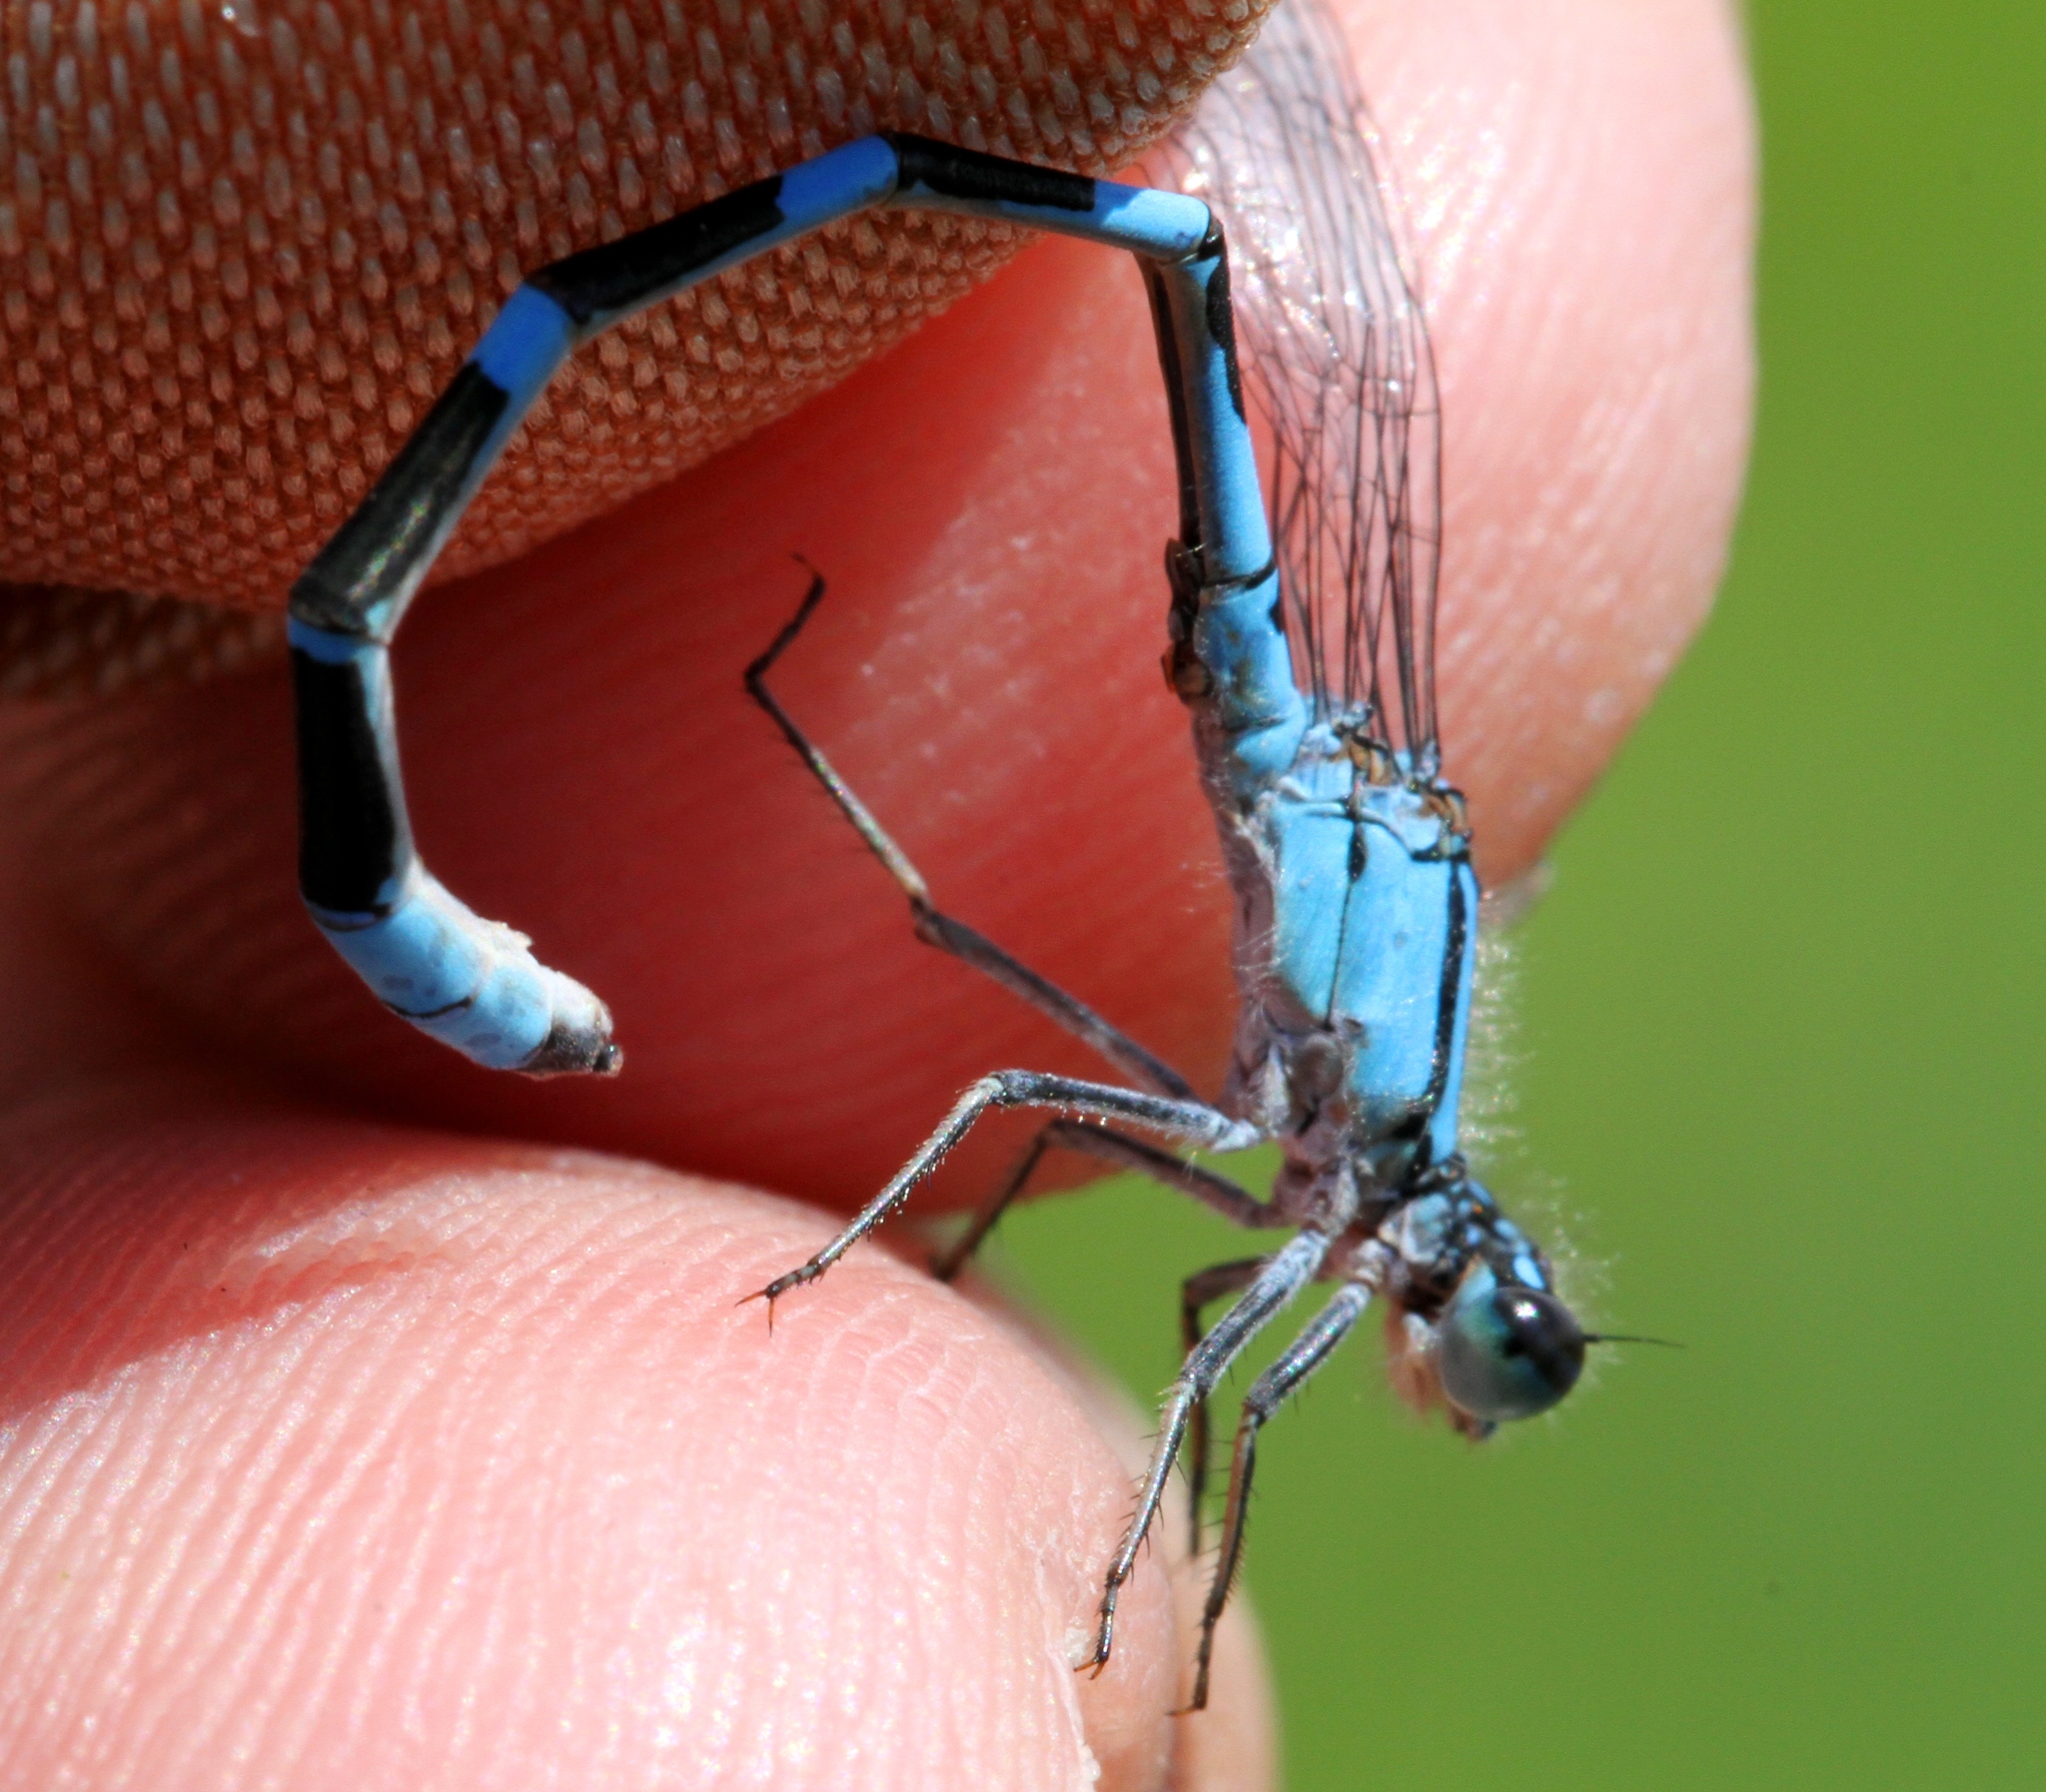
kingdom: Animalia
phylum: Arthropoda
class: Insecta
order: Odonata
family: Coenagrionidae
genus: Enallagma
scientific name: Enallagma carunculatum
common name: Tule bluet
